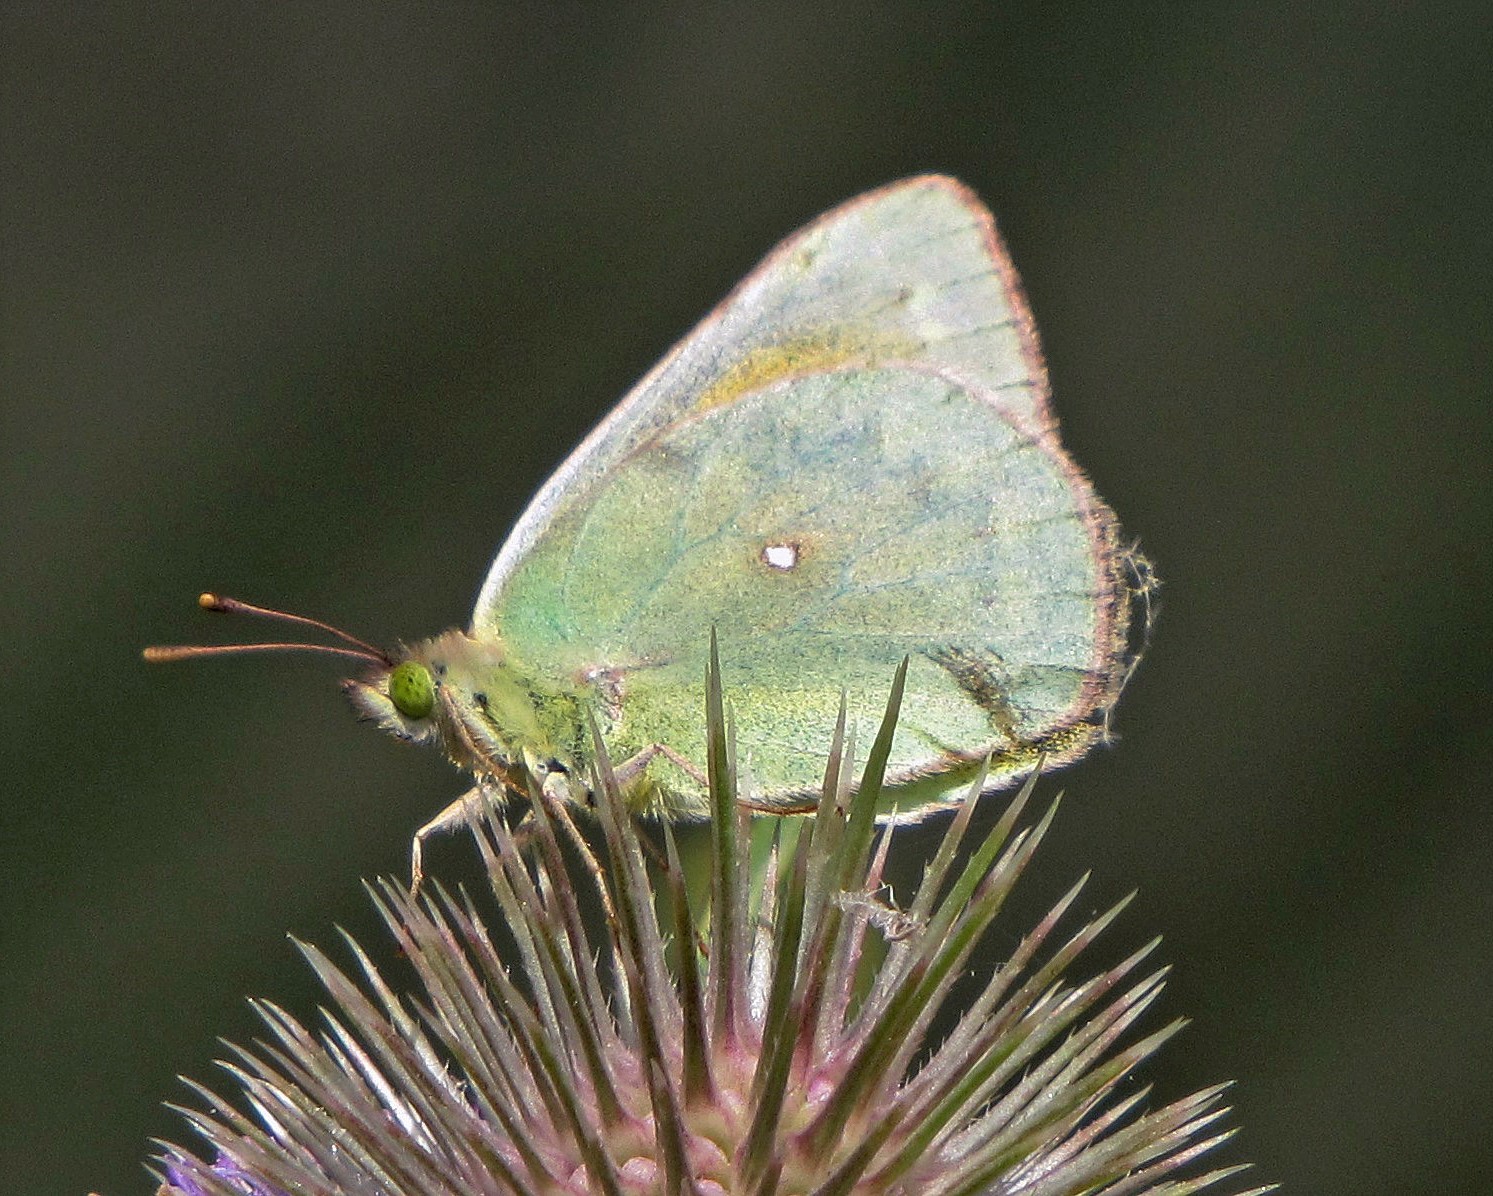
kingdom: Animalia
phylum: Arthropoda
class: Insecta
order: Lepidoptera
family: Pieridae
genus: Colias
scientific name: Colias lesbia
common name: Lesbia clouded yellow
